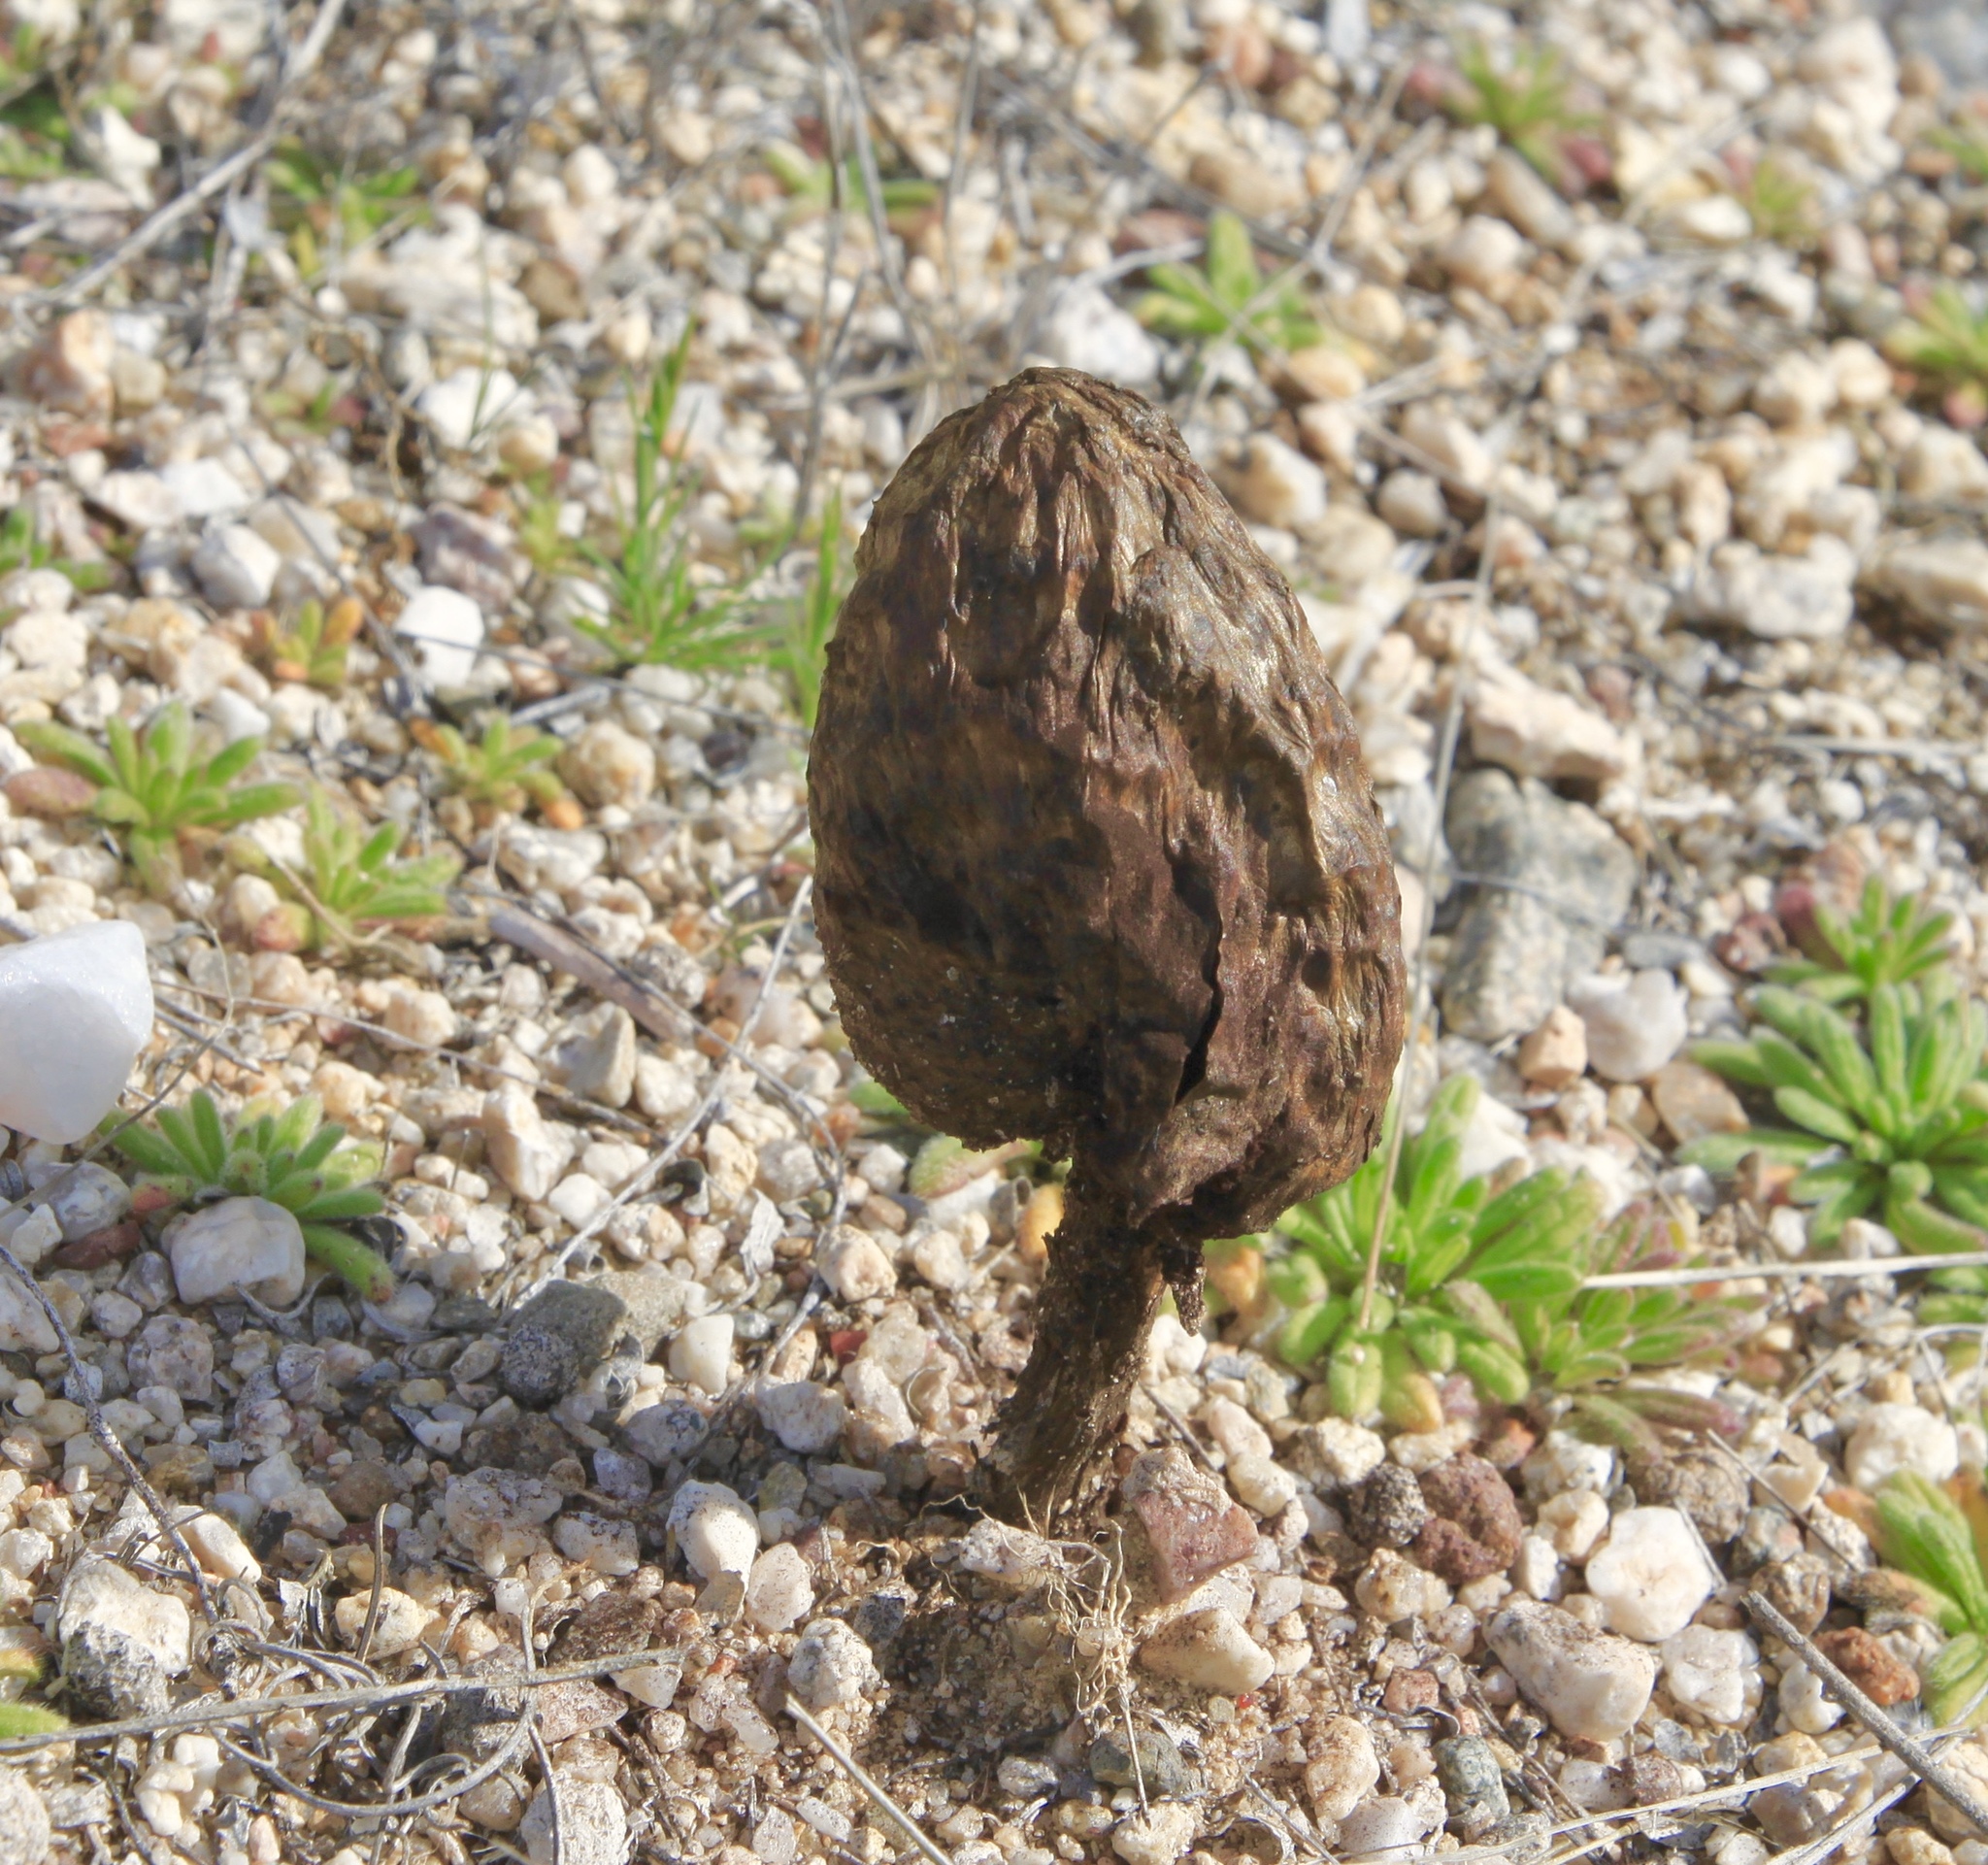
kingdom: Fungi
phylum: Basidiomycota
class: Agaricomycetes
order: Agaricales
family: Agaricaceae
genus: Podaxis
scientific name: Podaxis pistillaris
